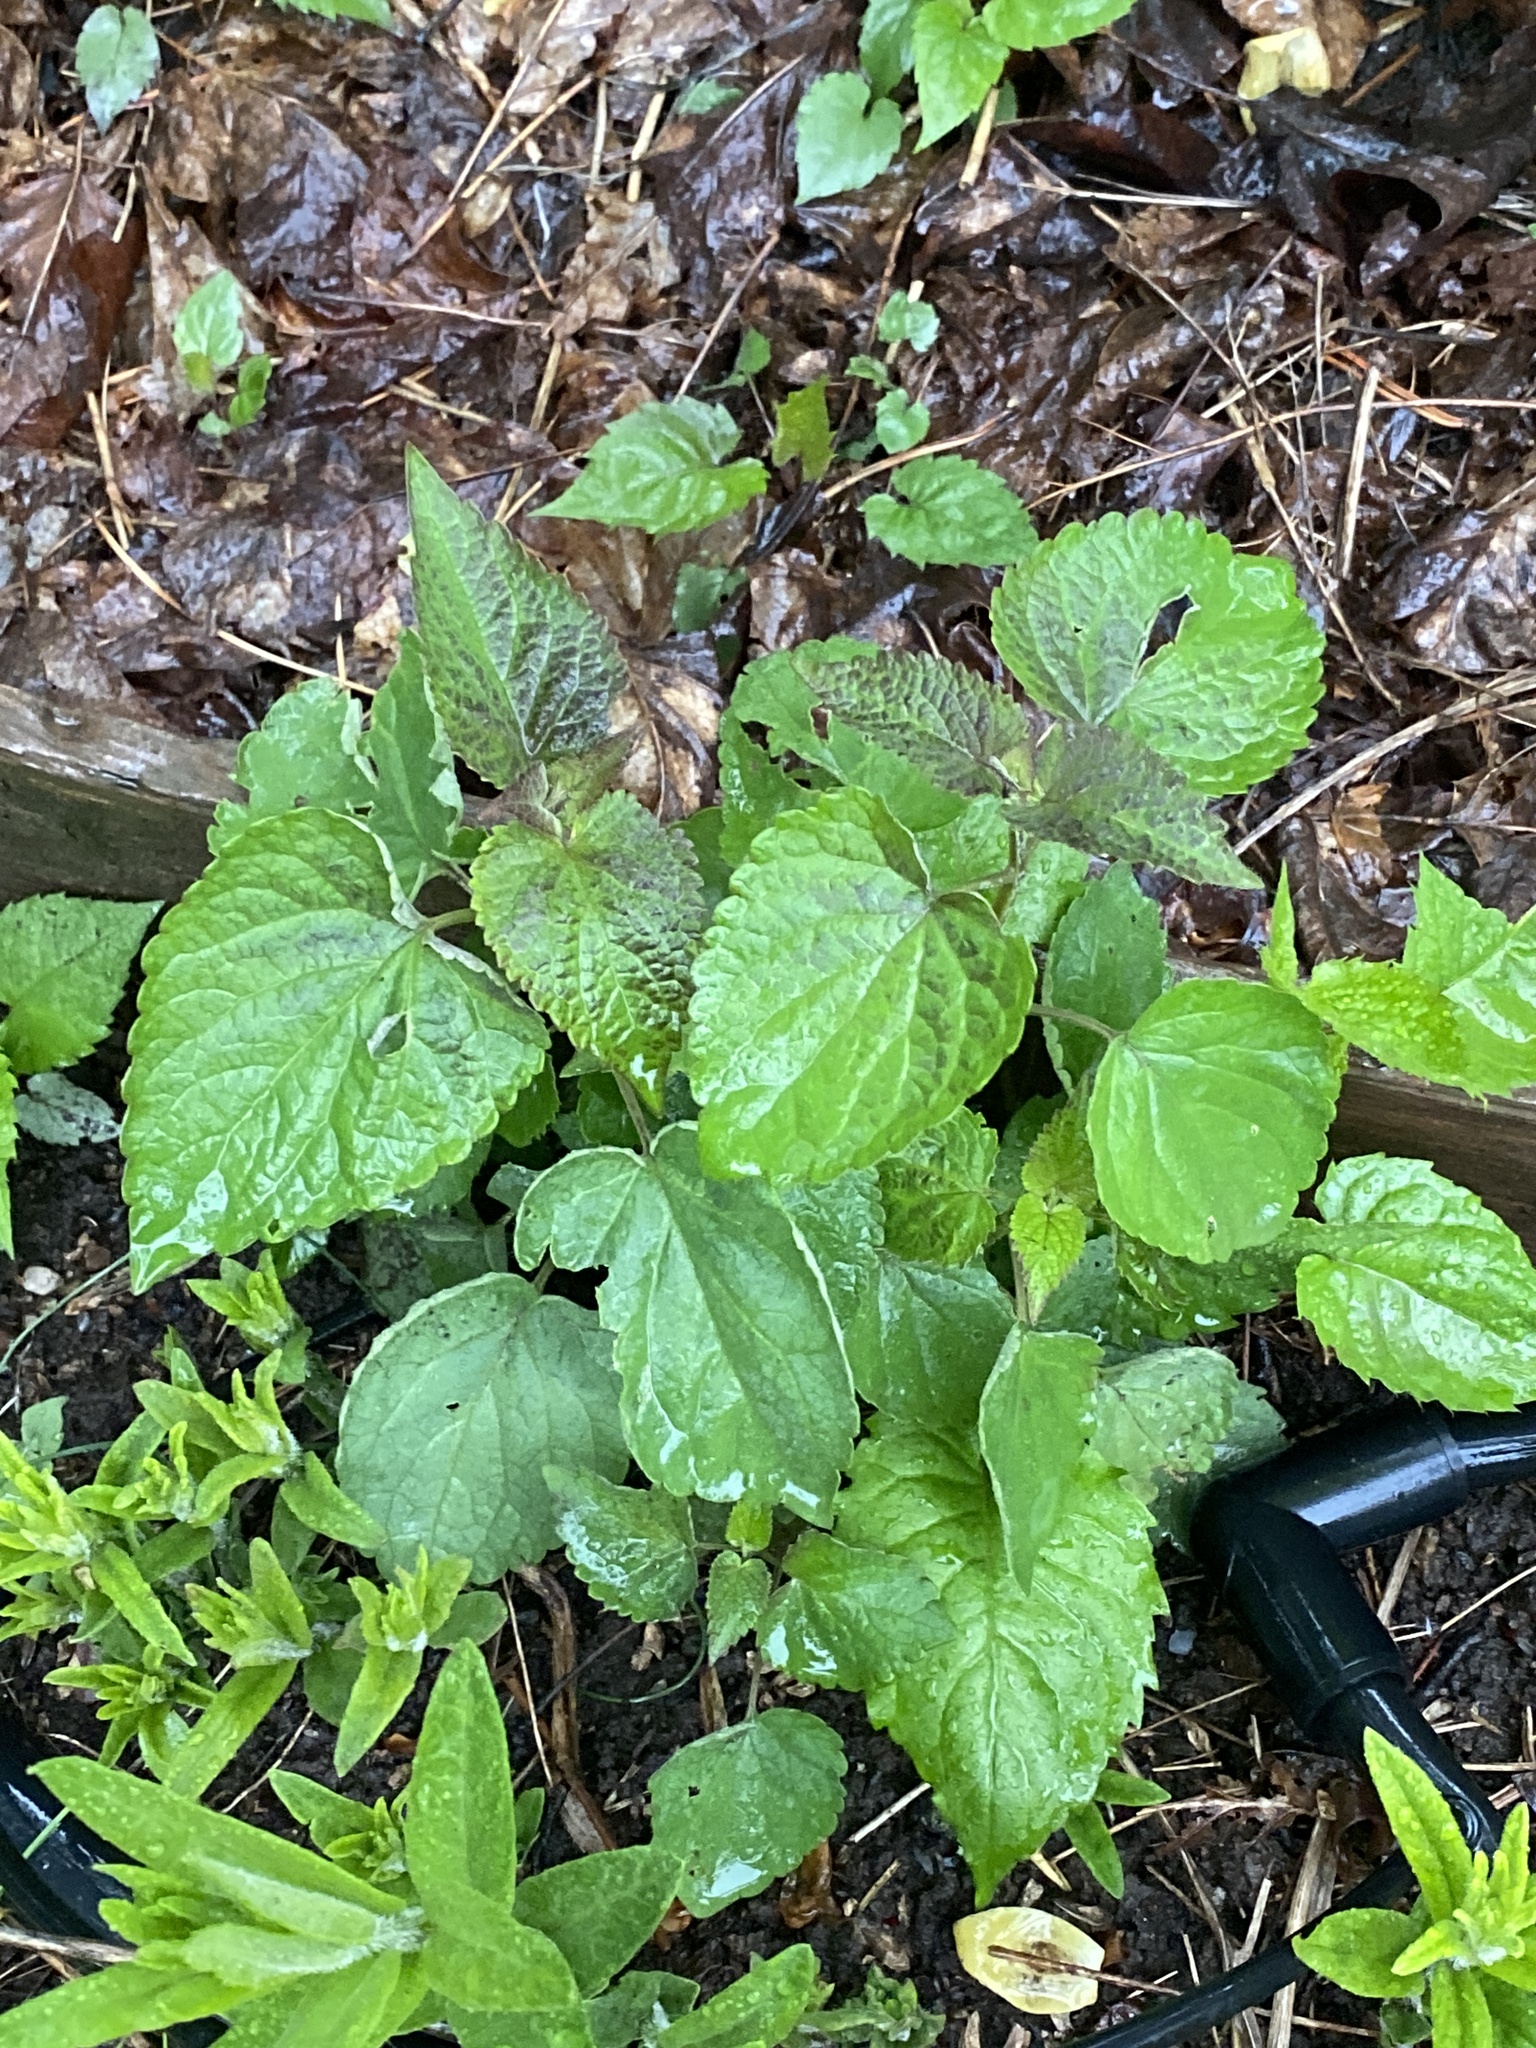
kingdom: Plantae
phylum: Tracheophyta
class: Magnoliopsida
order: Asterales
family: Asteraceae
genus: Ageratina
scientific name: Ageratina altissima
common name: White snakeroot
